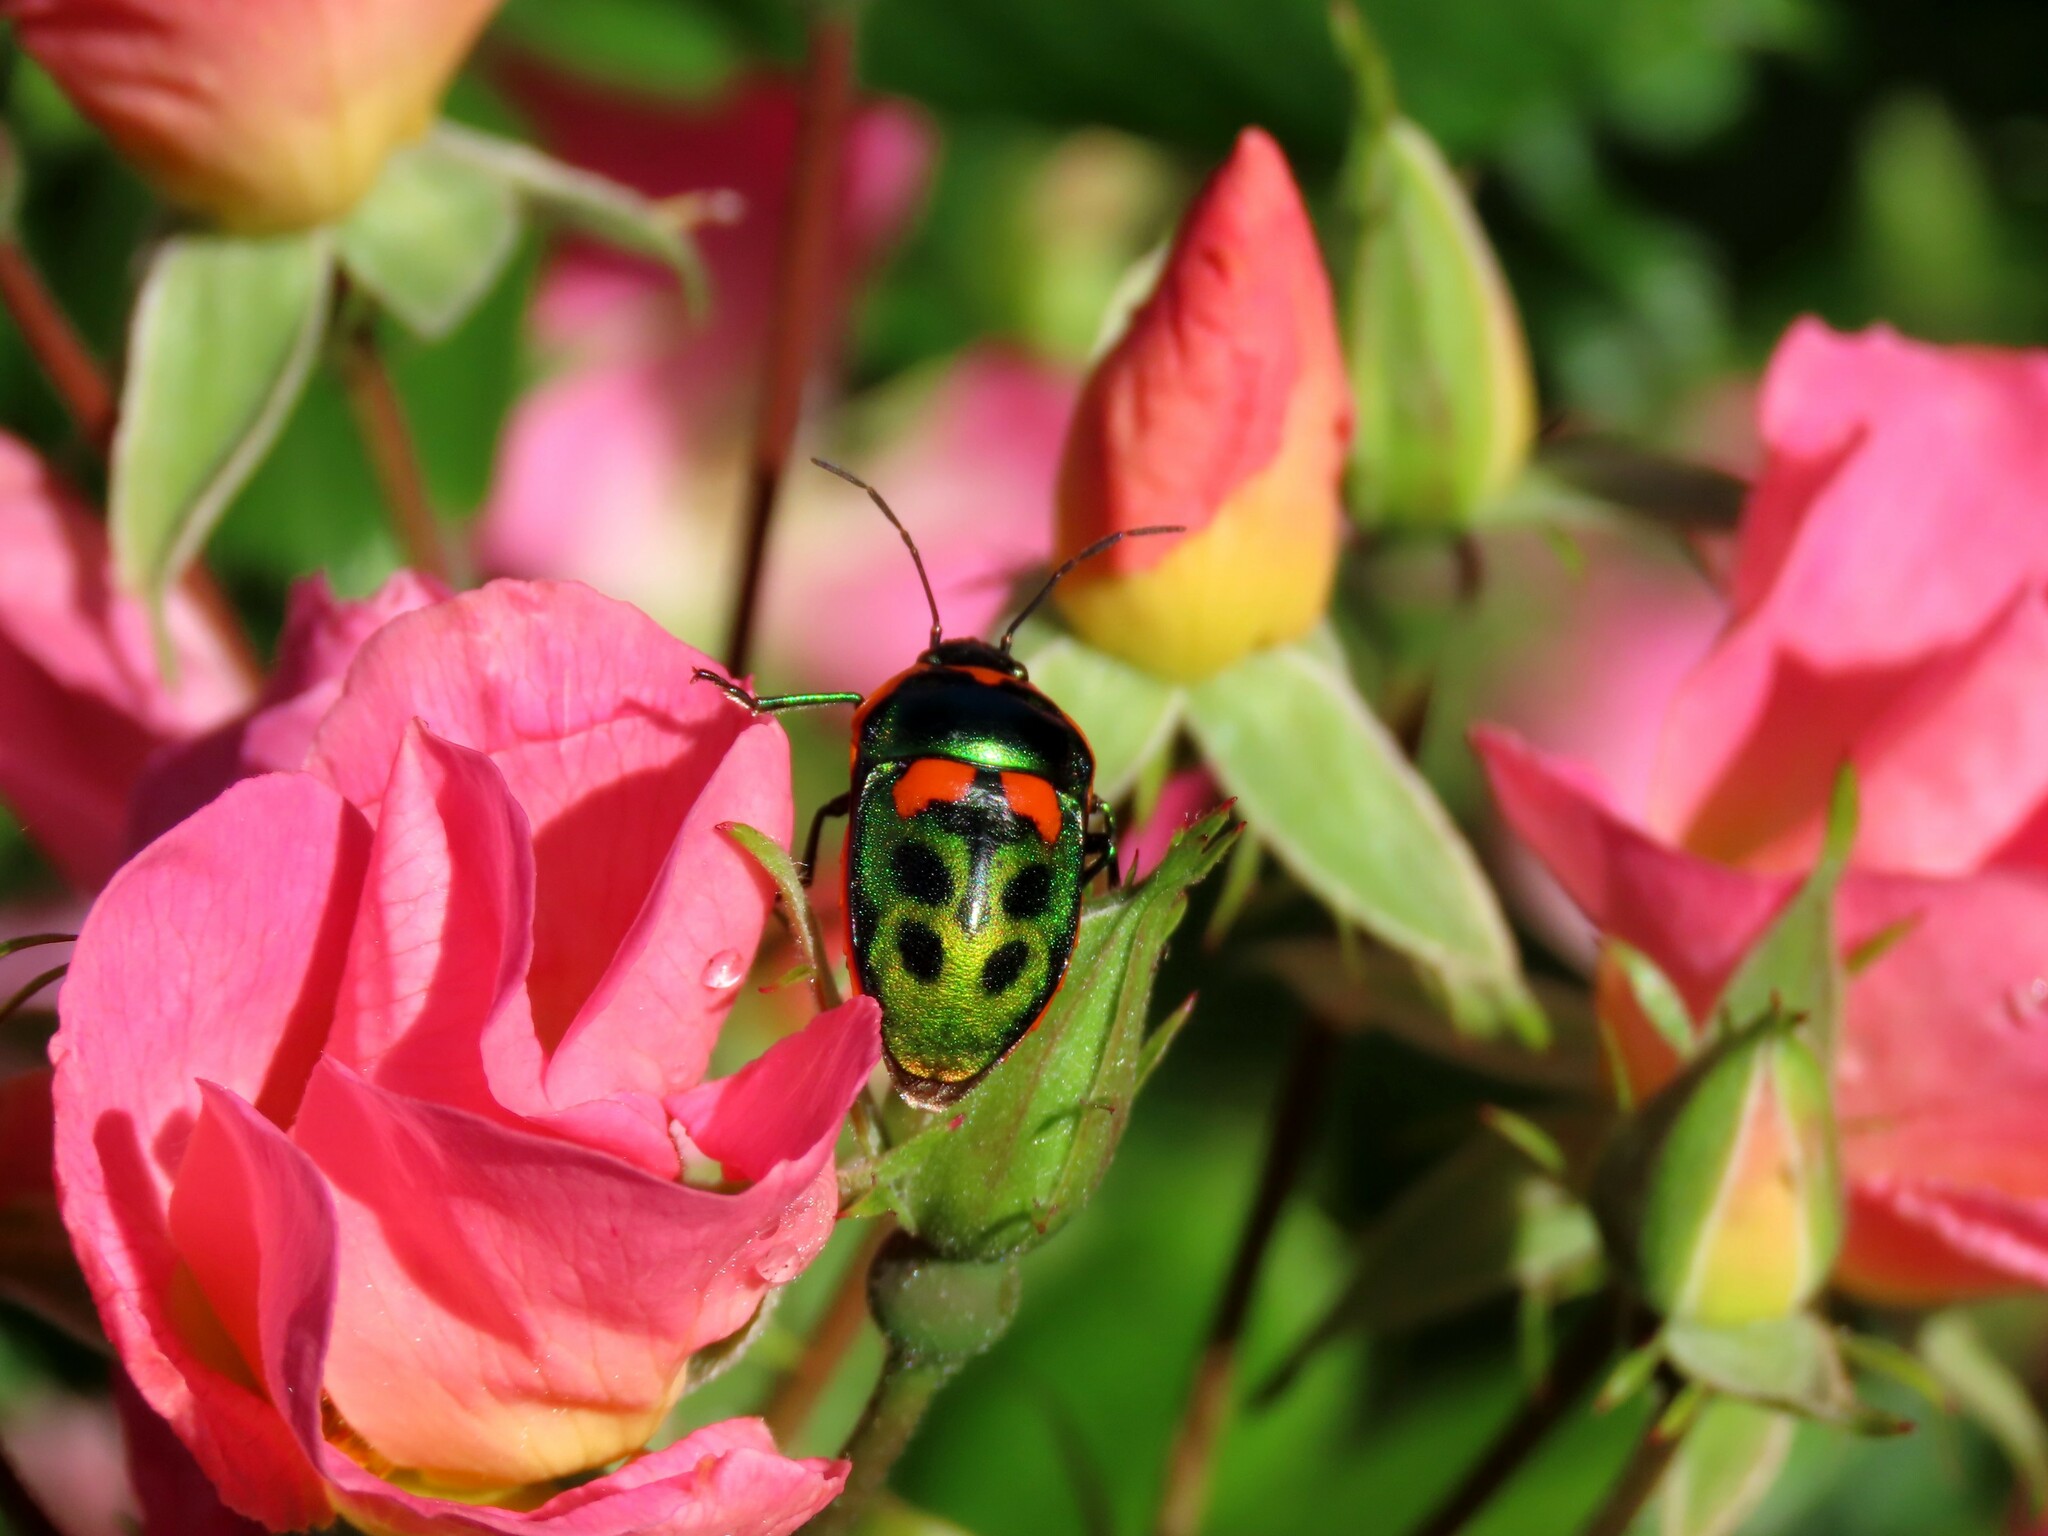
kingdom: Animalia
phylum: Arthropoda
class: Insecta
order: Hemiptera
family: Scutelleridae
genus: Scutiphora
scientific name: Scutiphora pedicellata
